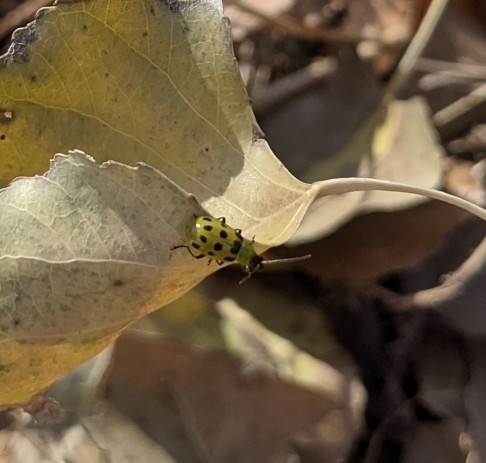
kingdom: Animalia
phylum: Arthropoda
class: Insecta
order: Coleoptera
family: Chrysomelidae
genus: Diabrotica
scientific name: Diabrotica undecimpunctata
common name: Spotted cucumber beetle
